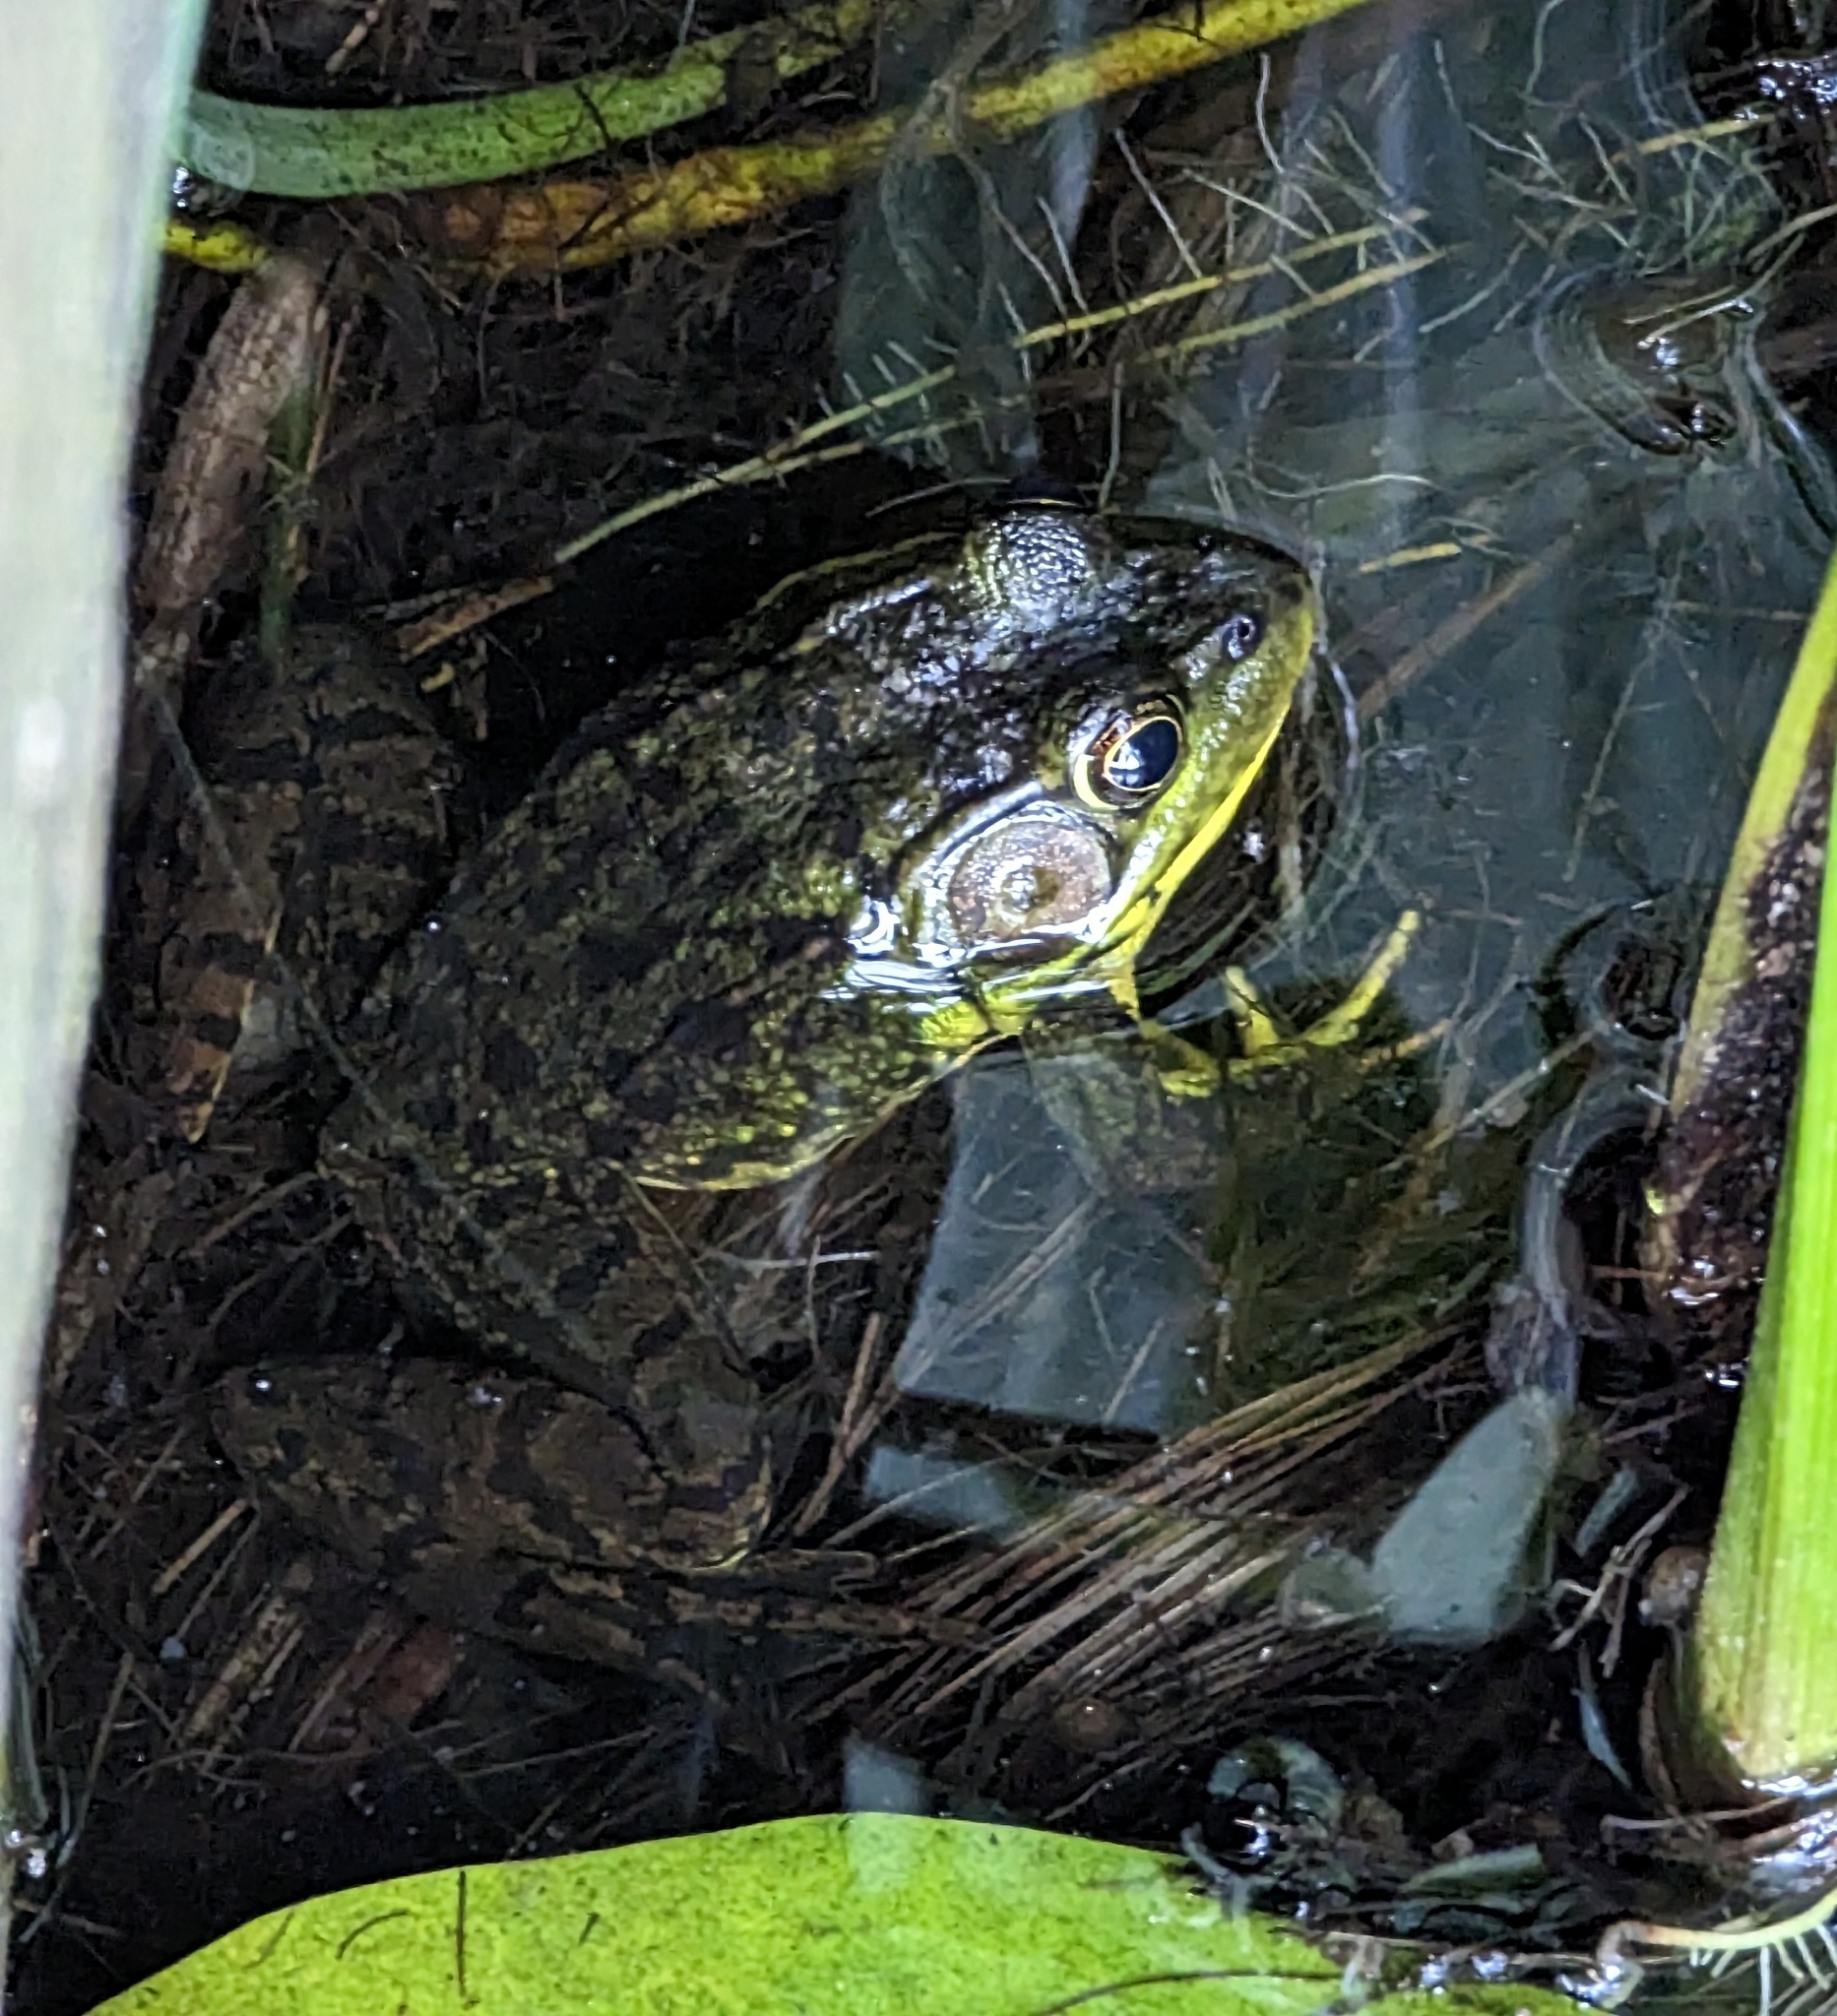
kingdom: Animalia
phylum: Chordata
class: Amphibia
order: Anura
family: Ranidae
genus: Lithobates
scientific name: Lithobates clamitans
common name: Green frog
